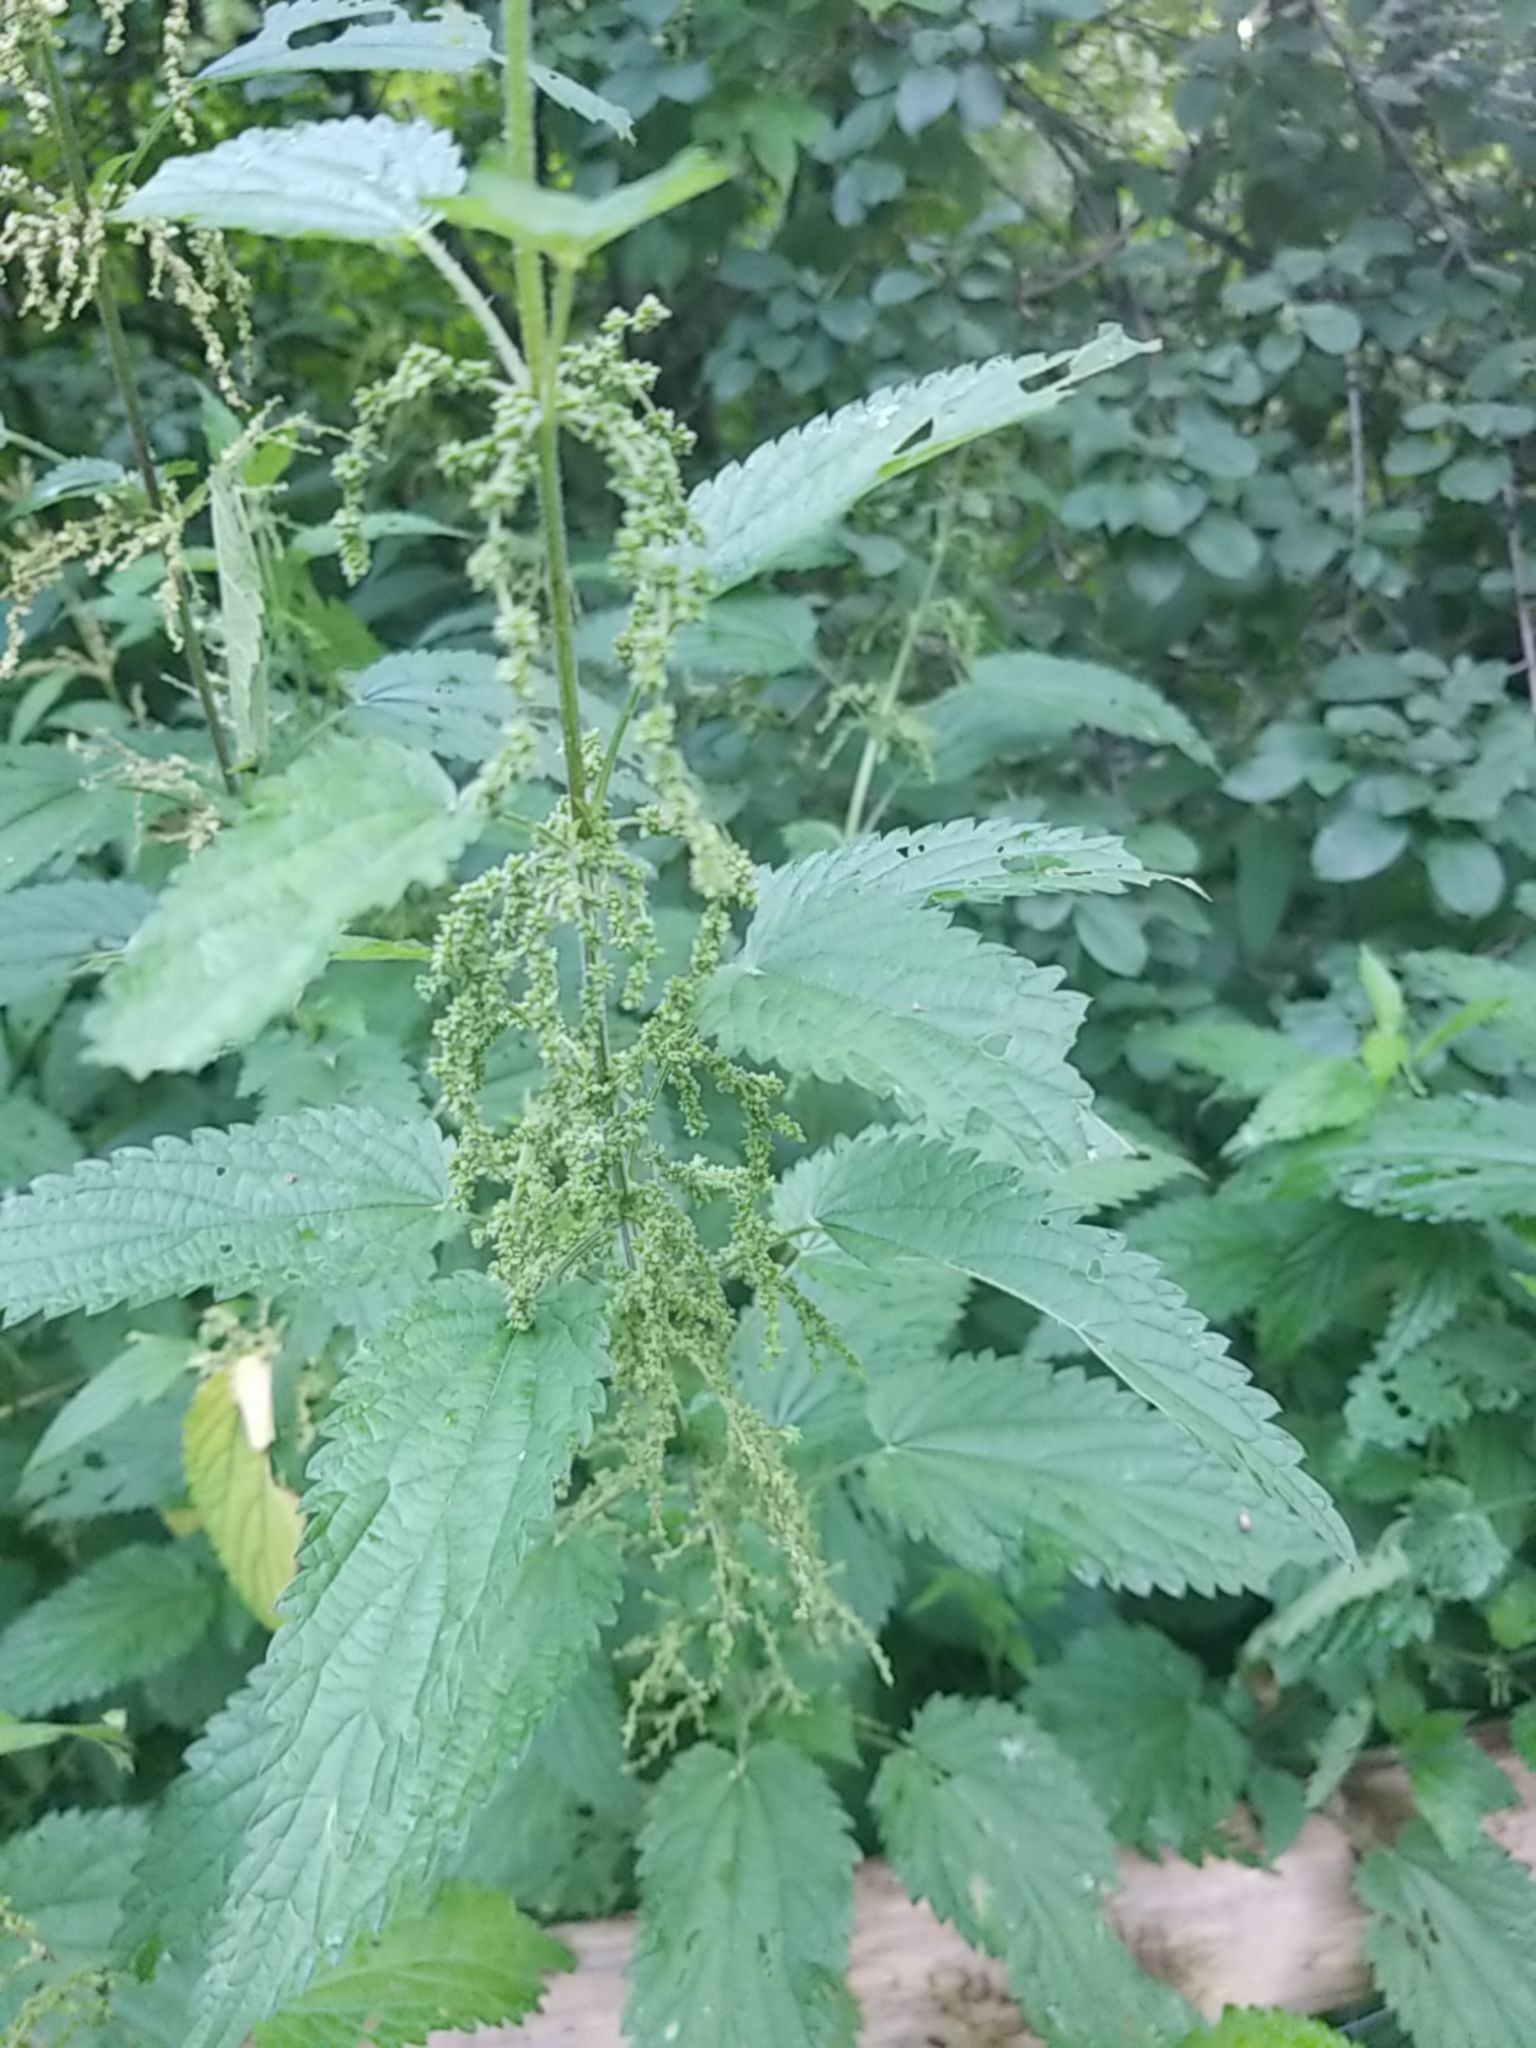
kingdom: Plantae
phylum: Tracheophyta
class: Magnoliopsida
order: Rosales
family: Urticaceae
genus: Urtica
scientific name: Urtica dioica
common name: Common nettle
